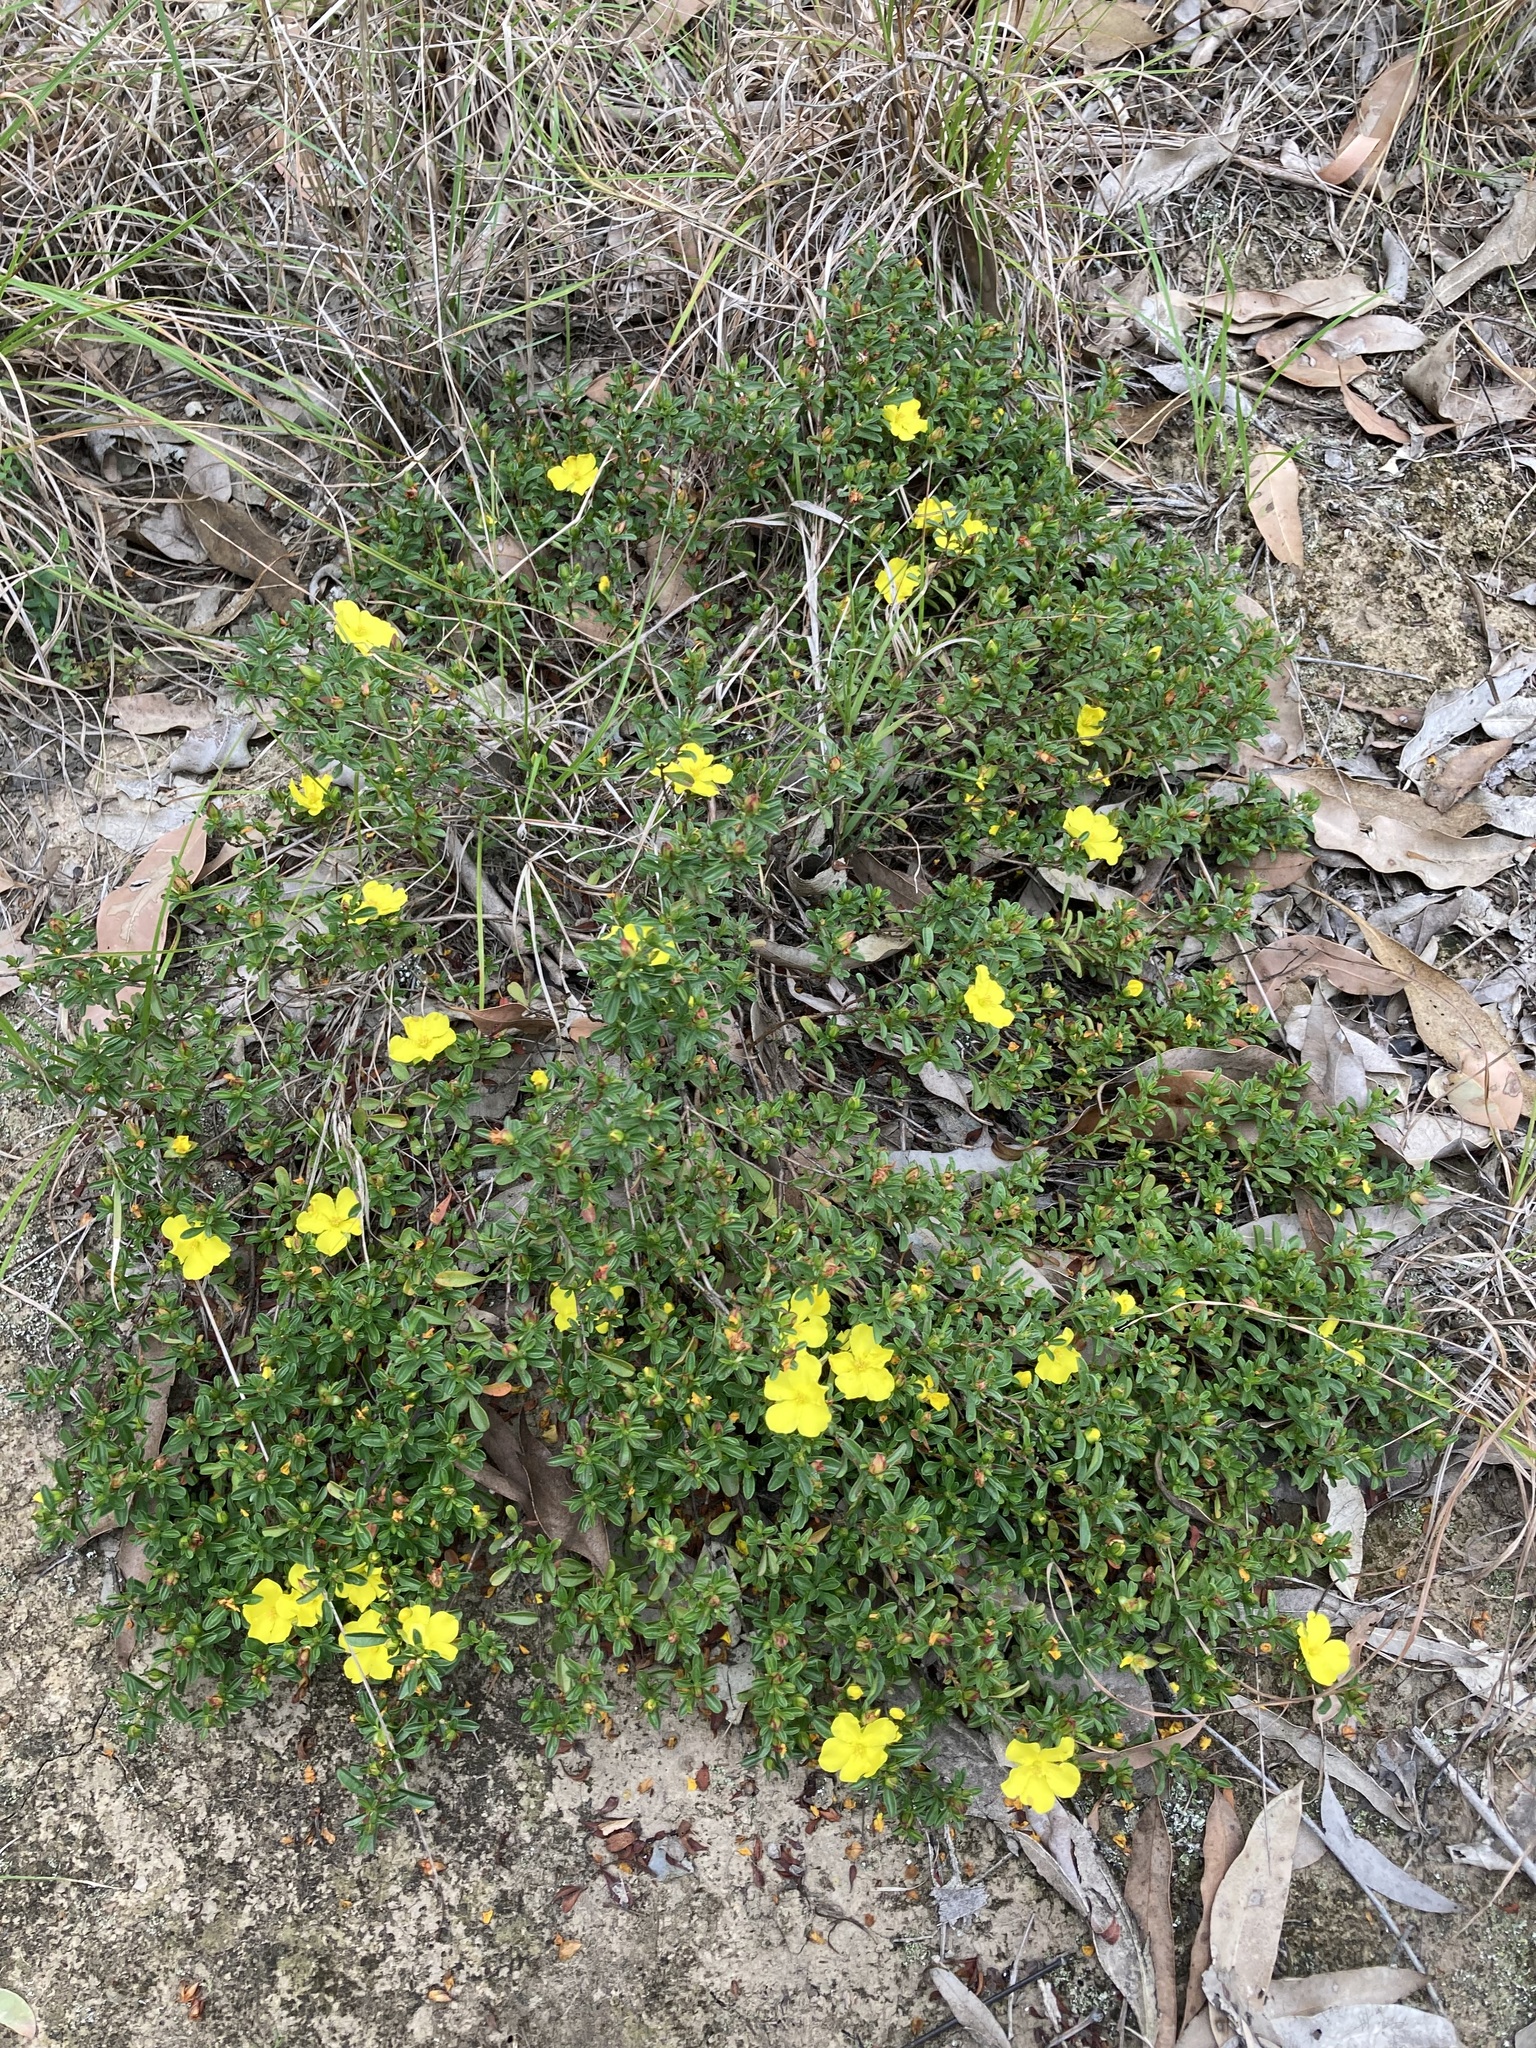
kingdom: Plantae
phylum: Tracheophyta
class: Magnoliopsida
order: Dilleniales
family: Dilleniaceae
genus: Hibbertia
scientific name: Hibbertia diffusa
